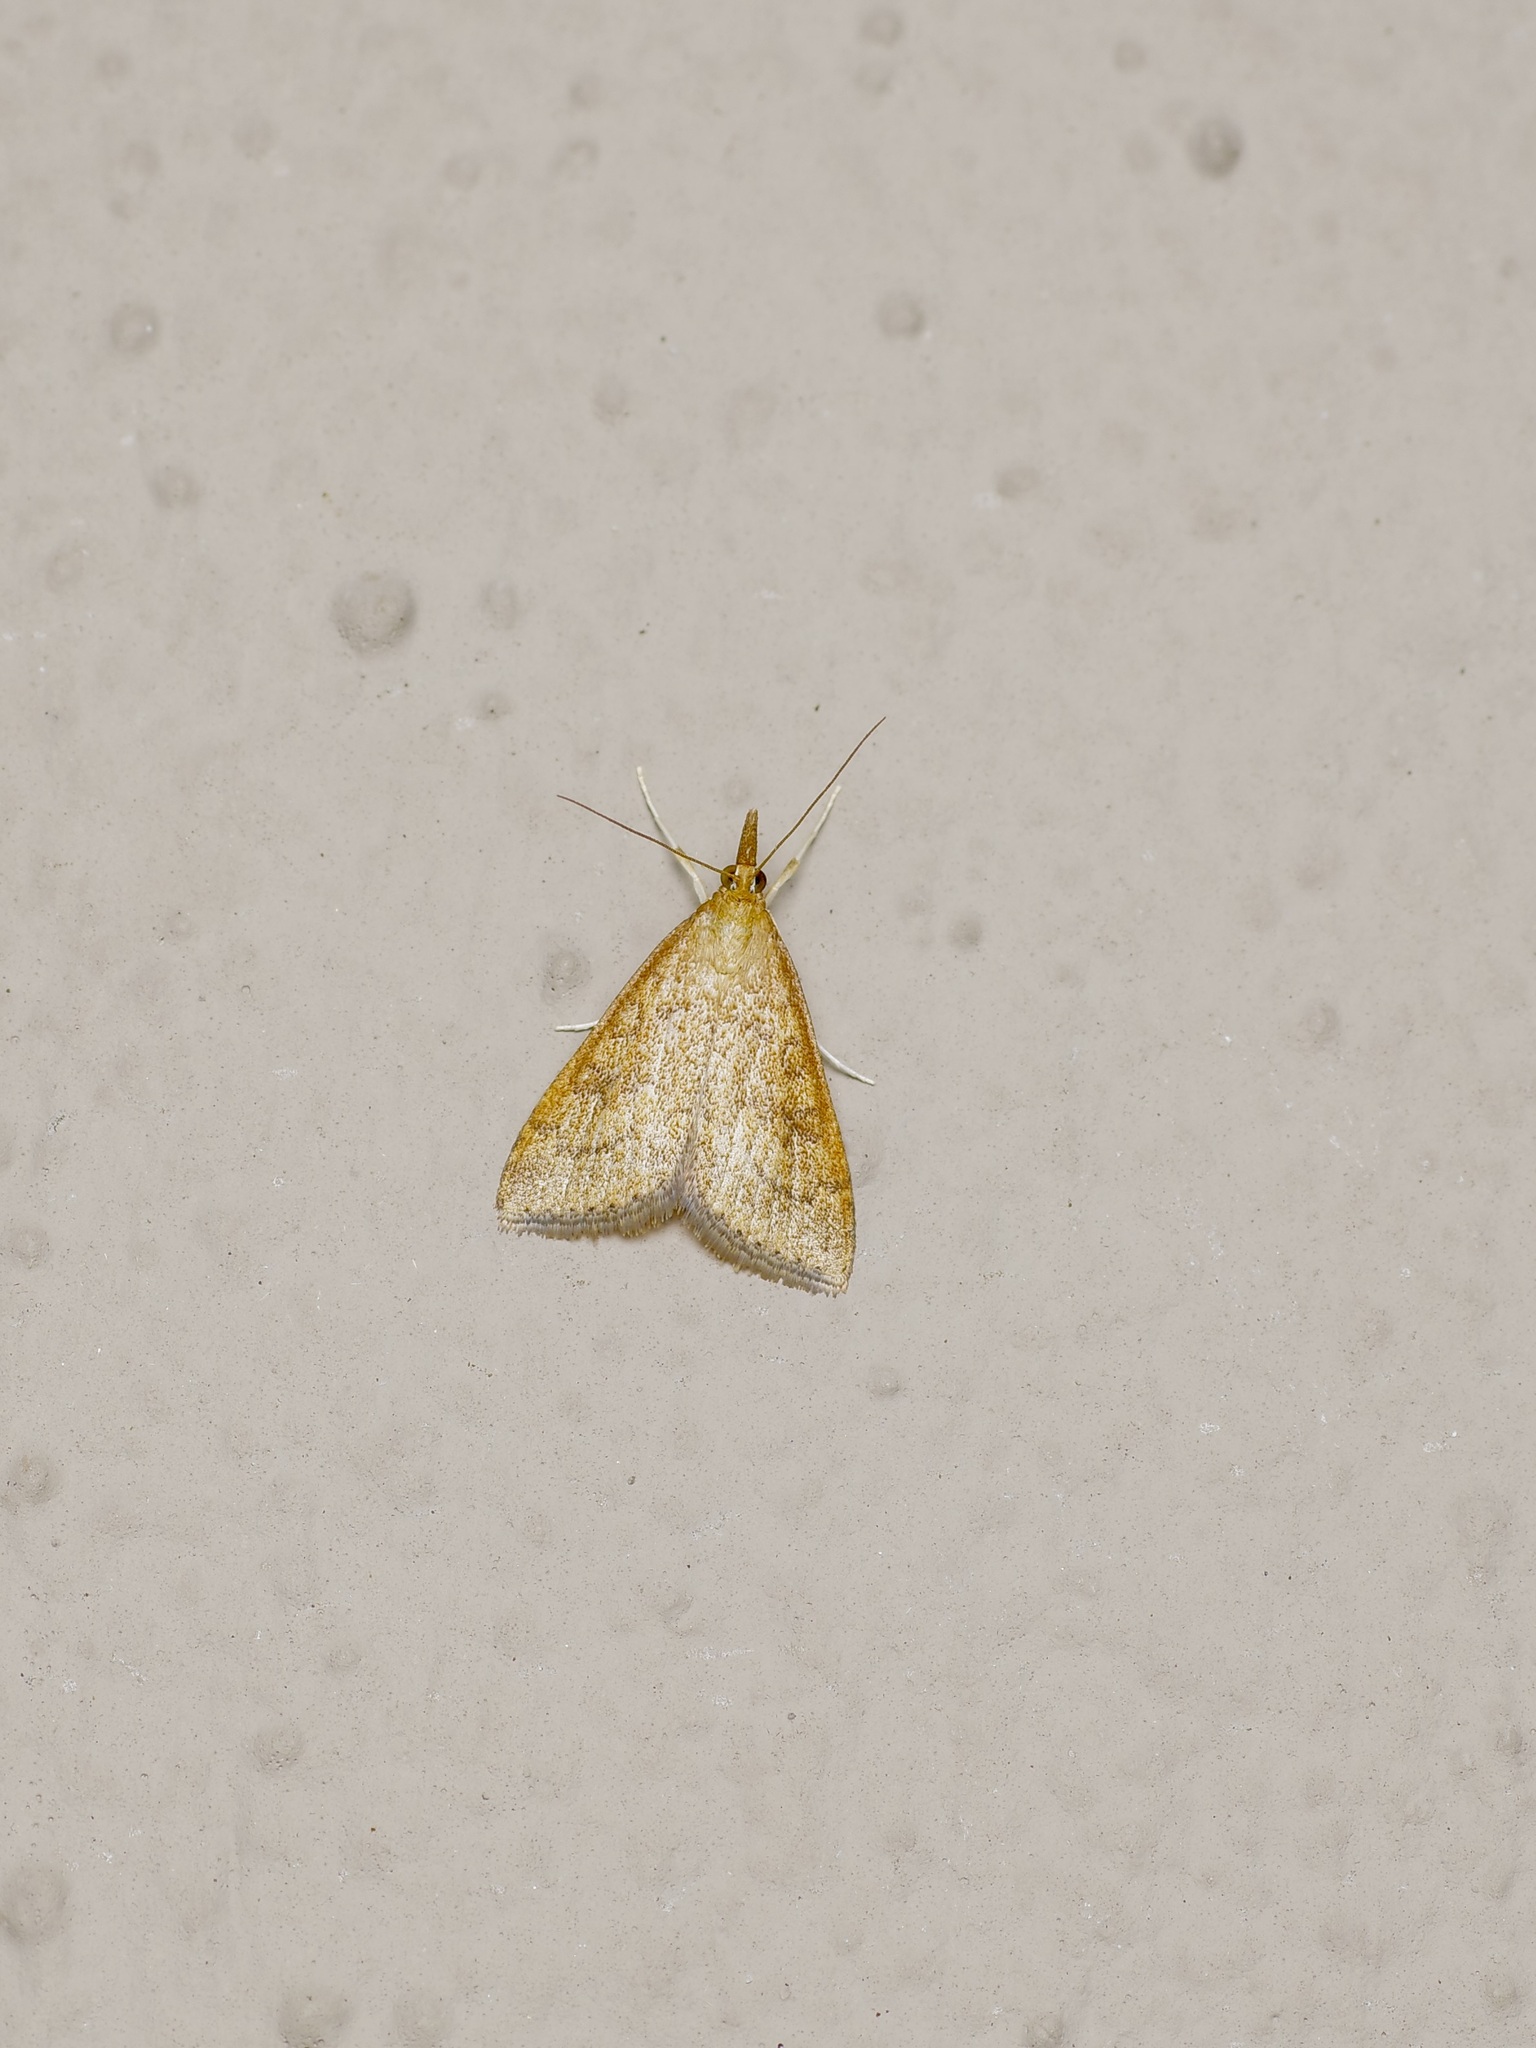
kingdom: Animalia
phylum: Arthropoda
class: Insecta
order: Lepidoptera
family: Crambidae
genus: Udea
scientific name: Udea rubigalis
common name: Celery leaftier moth
